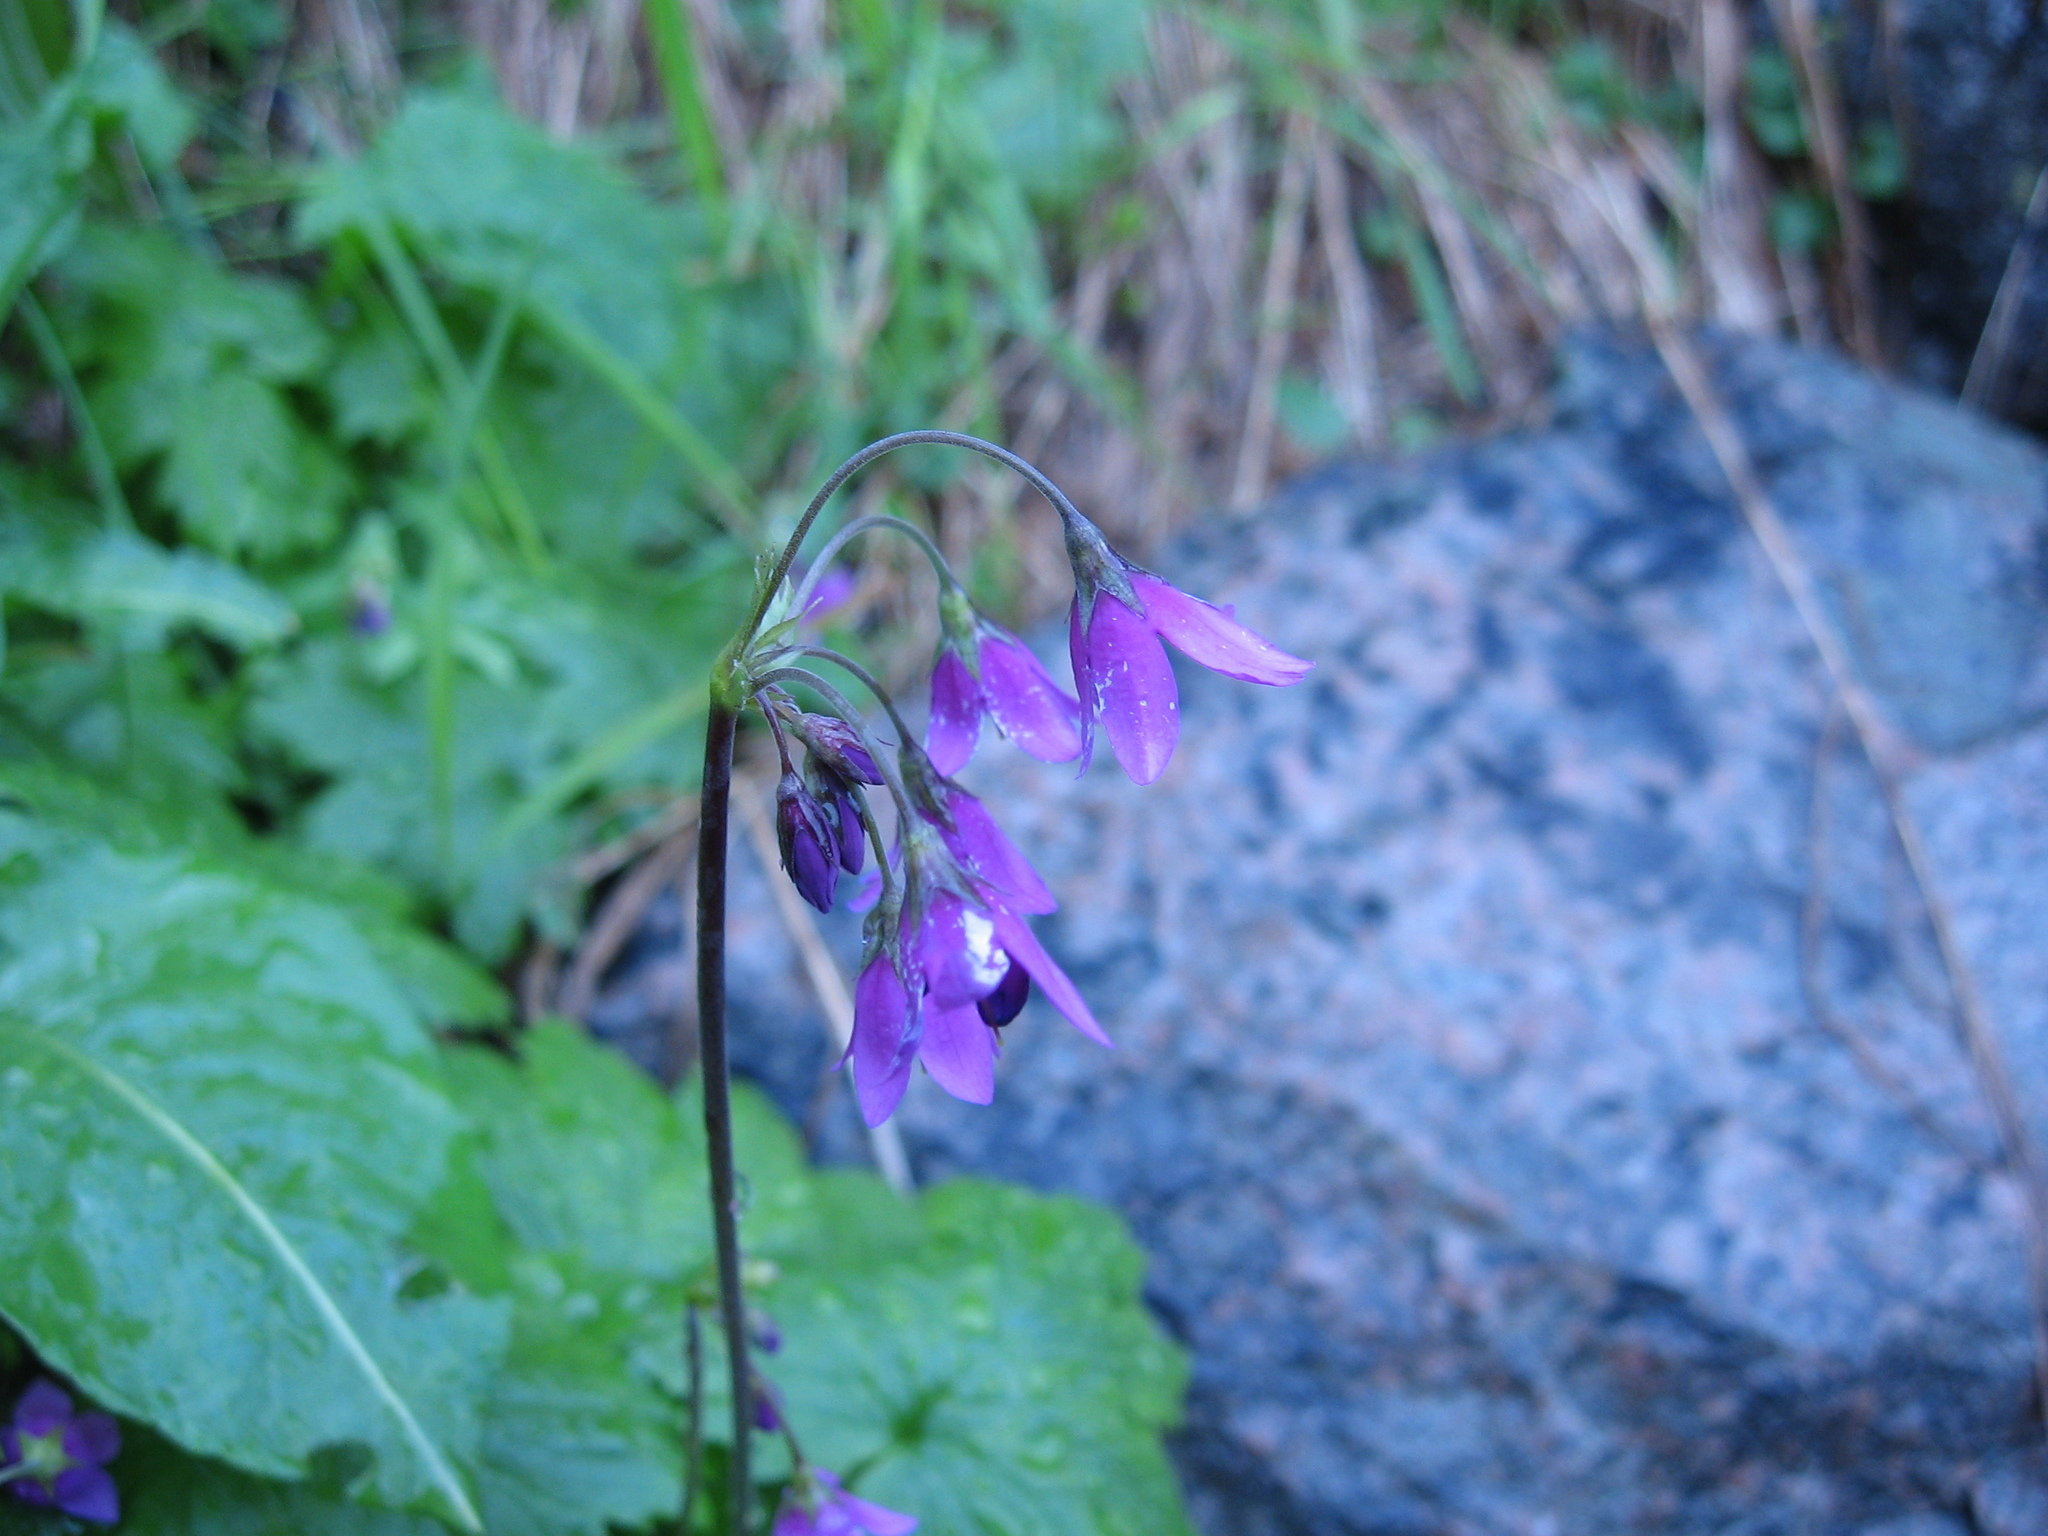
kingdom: Plantae
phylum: Tracheophyta
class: Magnoliopsida
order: Ericales
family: Primulaceae
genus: Primula
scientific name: Primula matthioli
